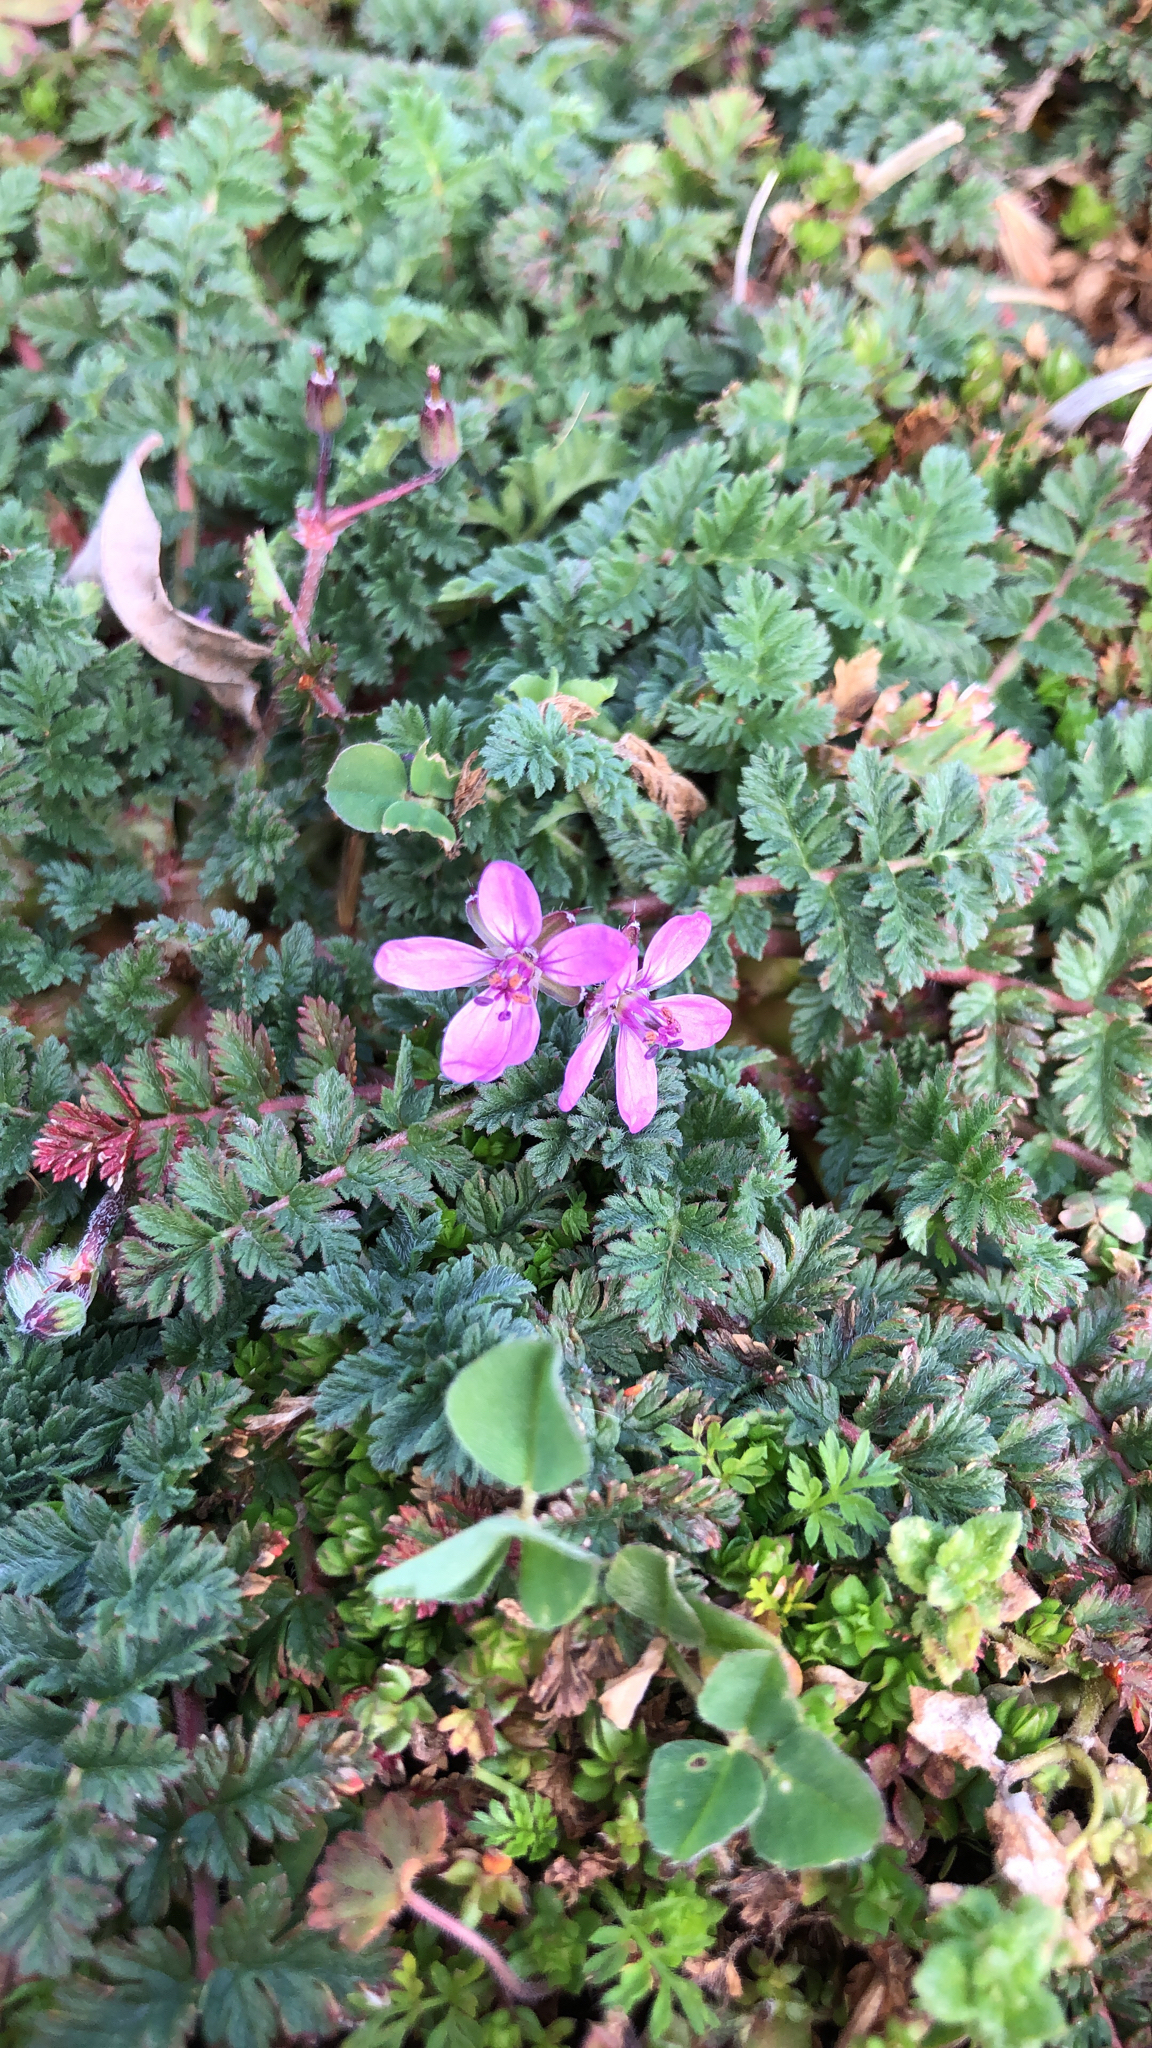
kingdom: Plantae
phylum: Tracheophyta
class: Magnoliopsida
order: Geraniales
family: Geraniaceae
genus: Erodium
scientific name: Erodium cicutarium
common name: Common stork's-bill
